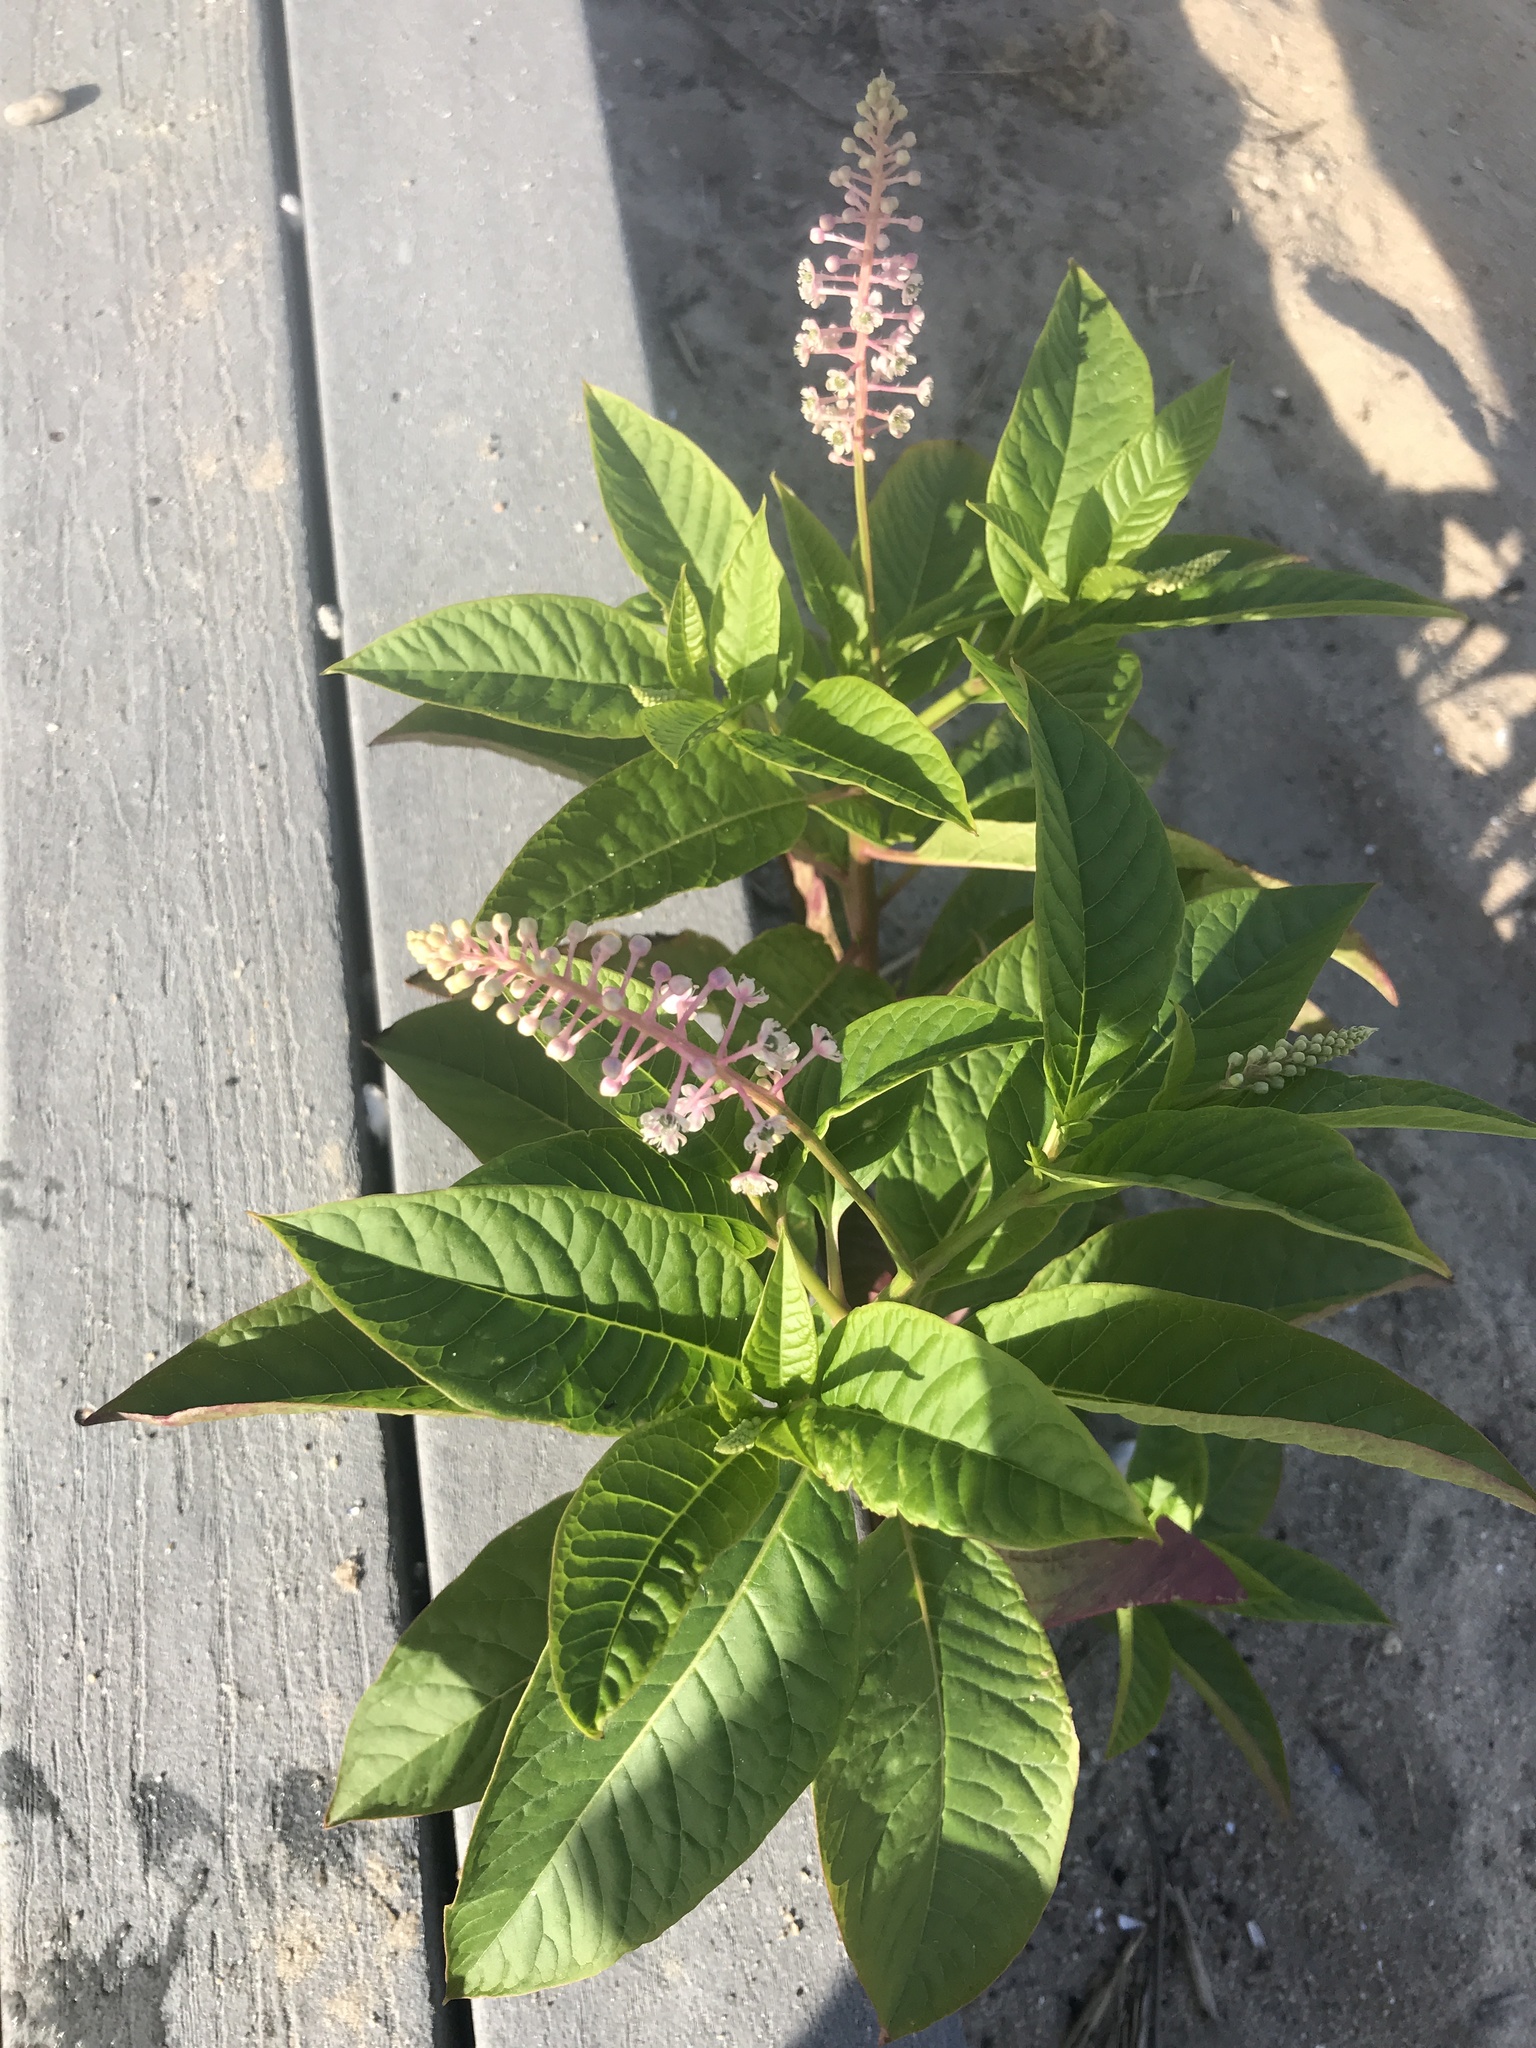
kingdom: Plantae
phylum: Tracheophyta
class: Magnoliopsida
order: Caryophyllales
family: Phytolaccaceae
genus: Phytolacca
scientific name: Phytolacca americana
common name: American pokeweed
